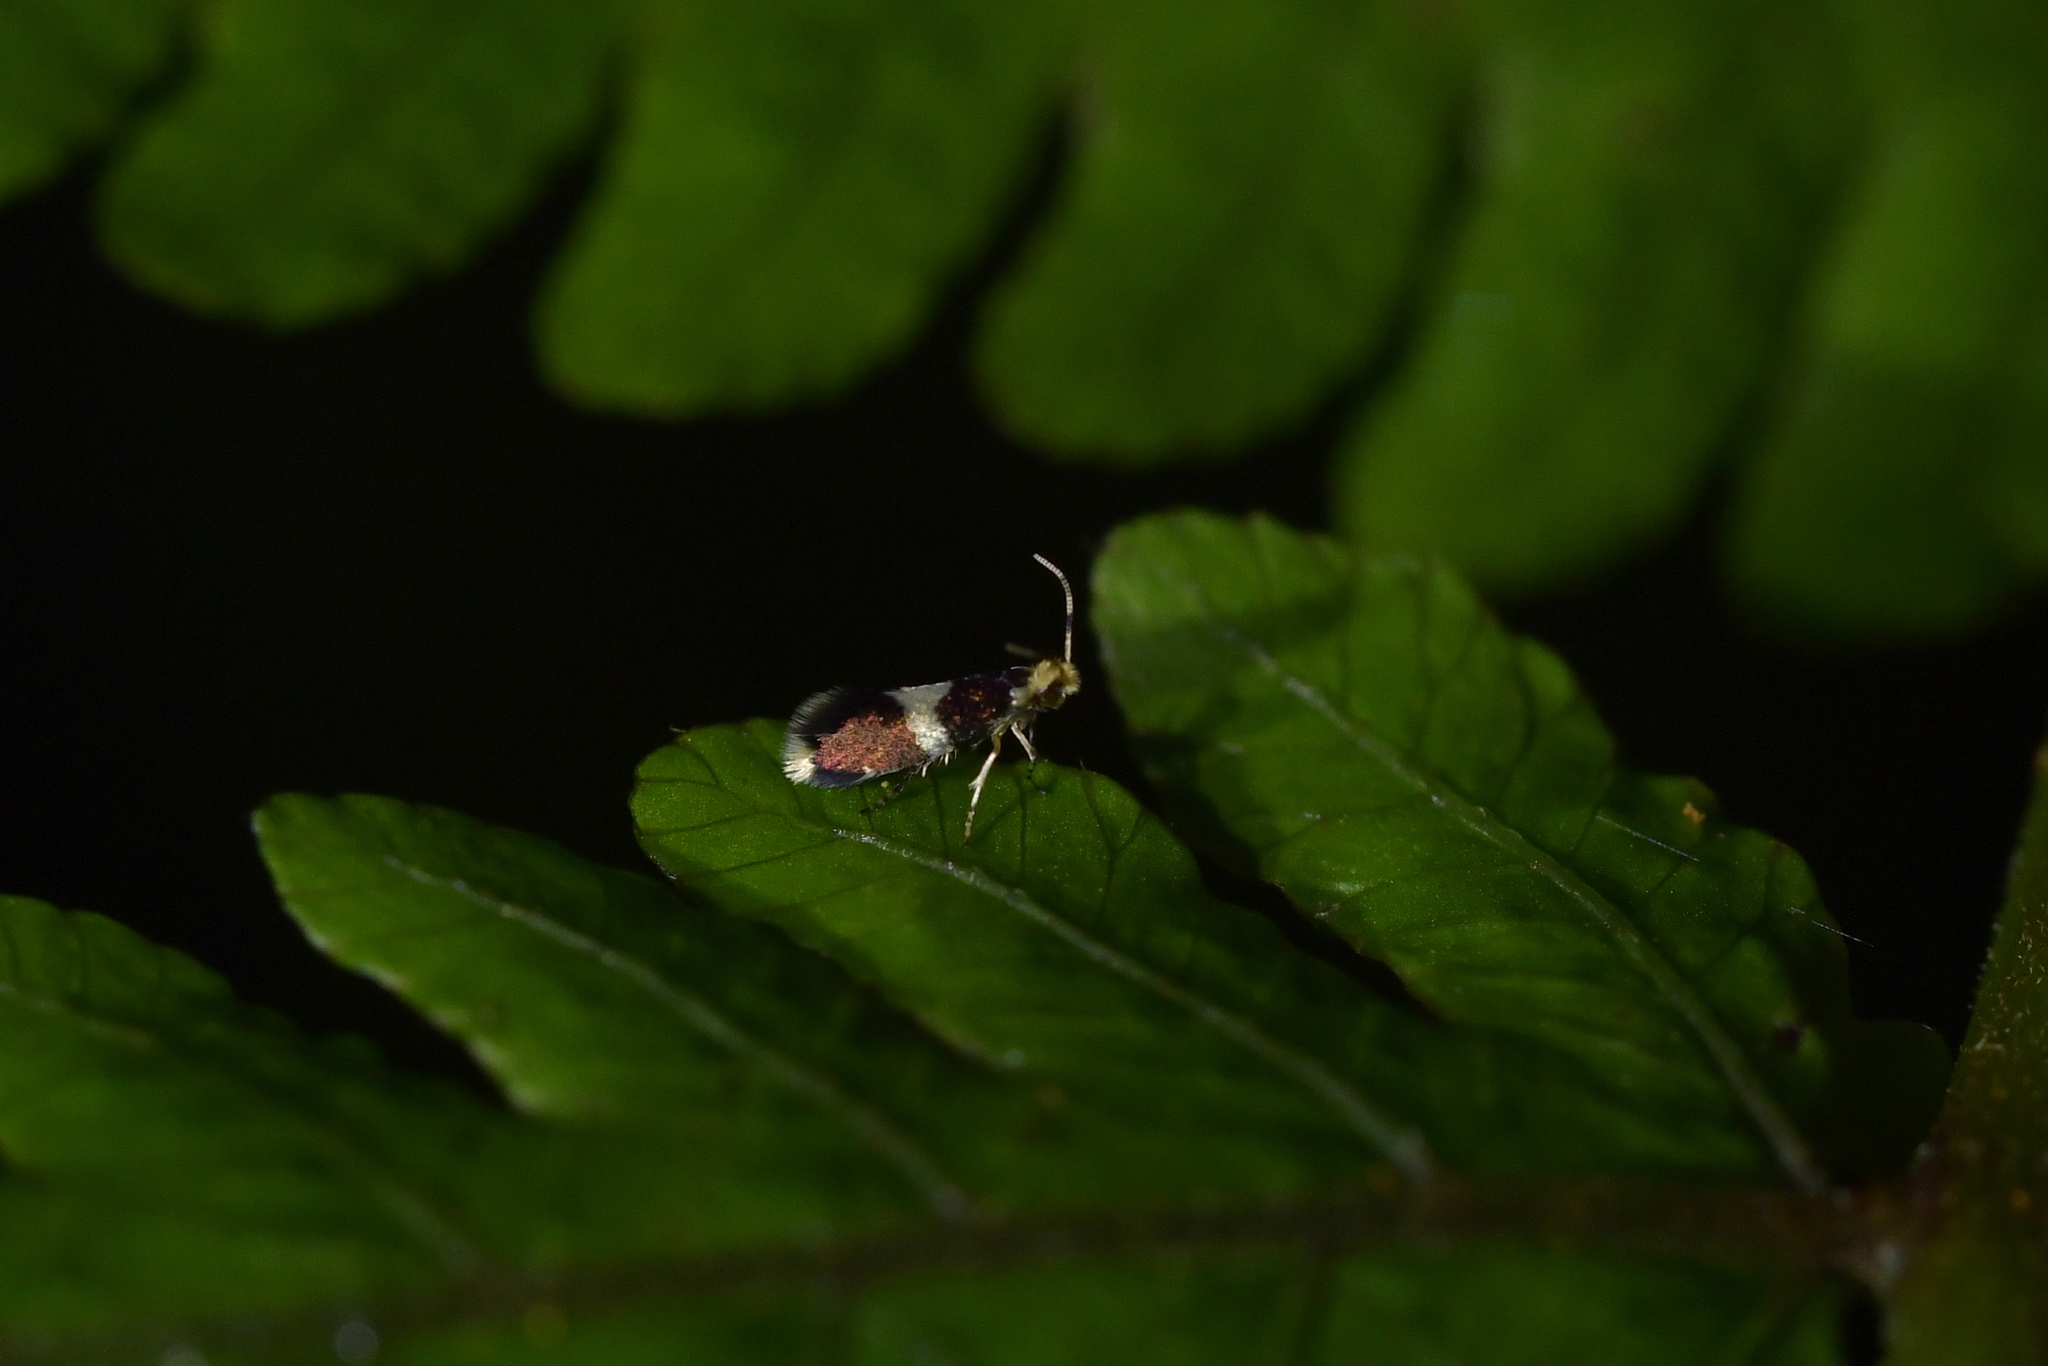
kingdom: Animalia
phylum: Arthropoda
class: Insecta
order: Lepidoptera
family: Micropterigidae
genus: Zealandopterix
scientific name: Zealandopterix zonodoxa
